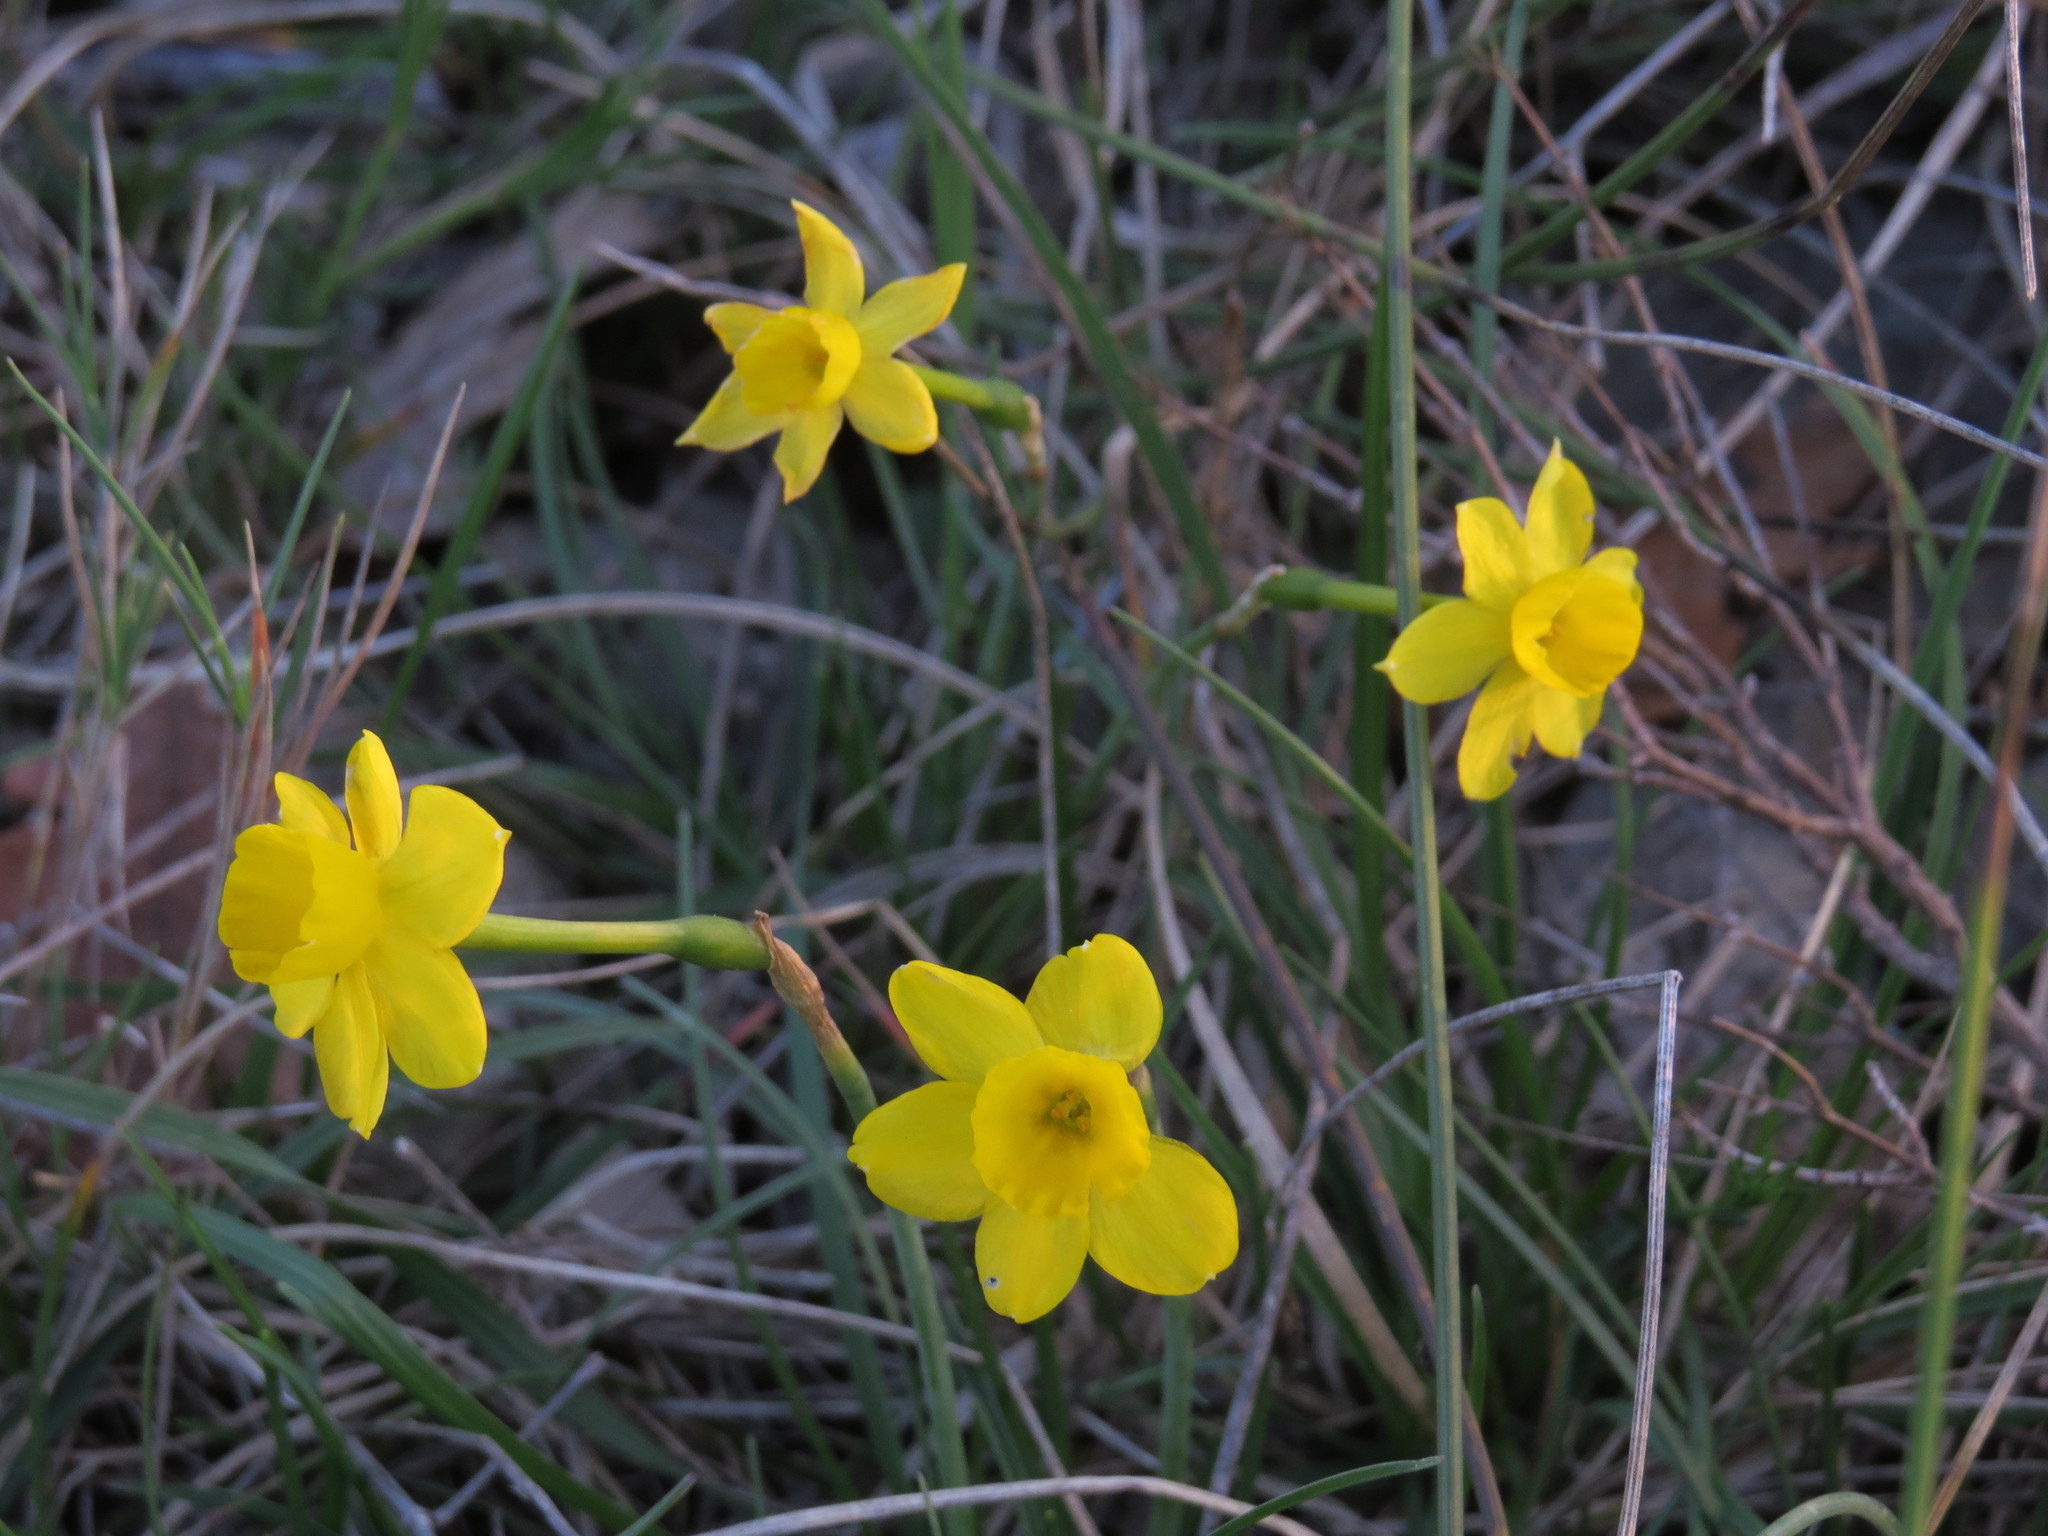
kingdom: Plantae
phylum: Tracheophyta
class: Liliopsida
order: Asparagales
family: Amaryllidaceae
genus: Narcissus
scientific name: Narcissus assoanus
